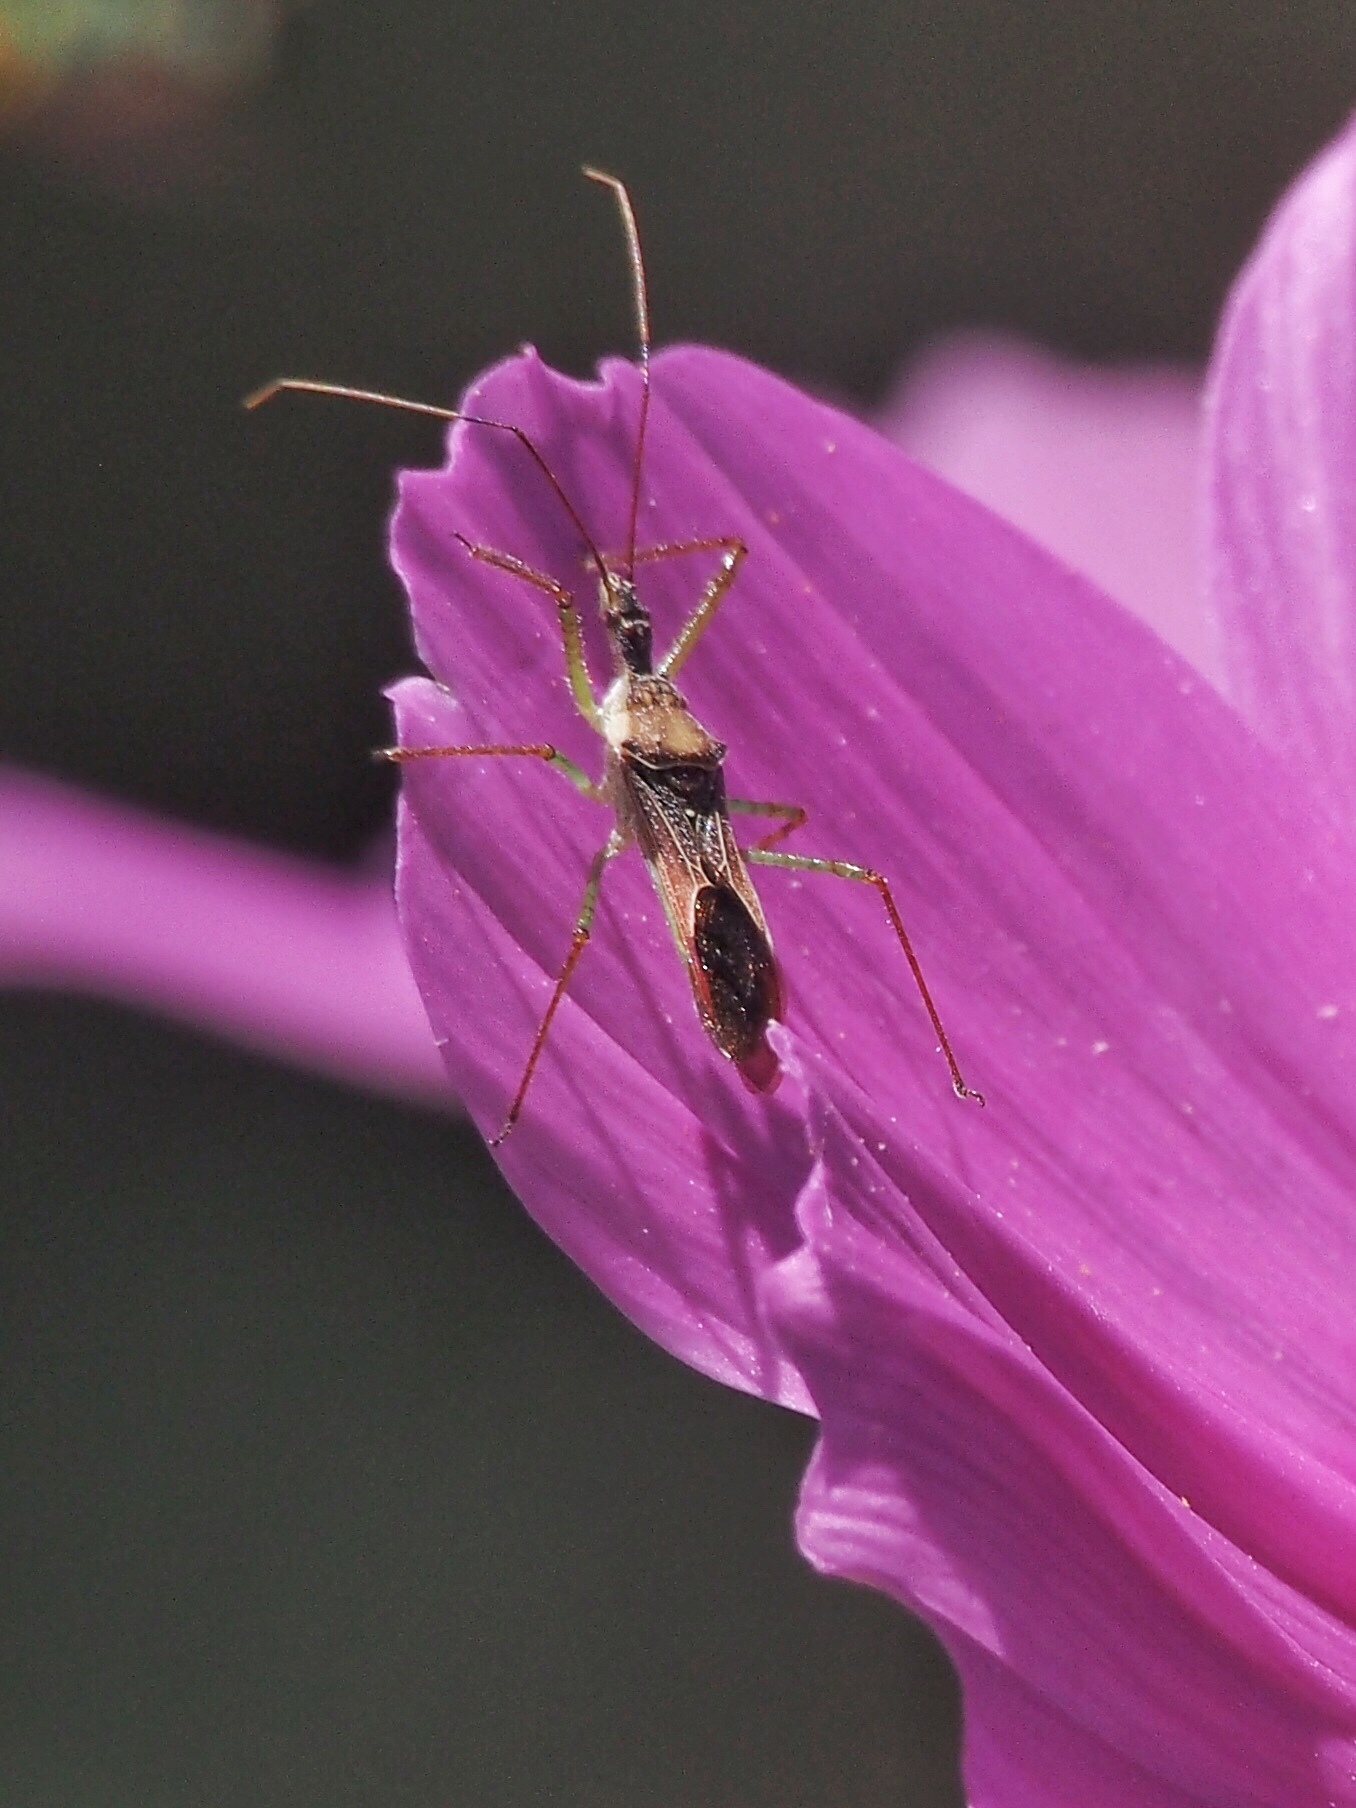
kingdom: Animalia
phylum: Arthropoda
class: Insecta
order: Hemiptera
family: Reduviidae
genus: Zelus
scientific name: Zelus renardii
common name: Assassin bug
